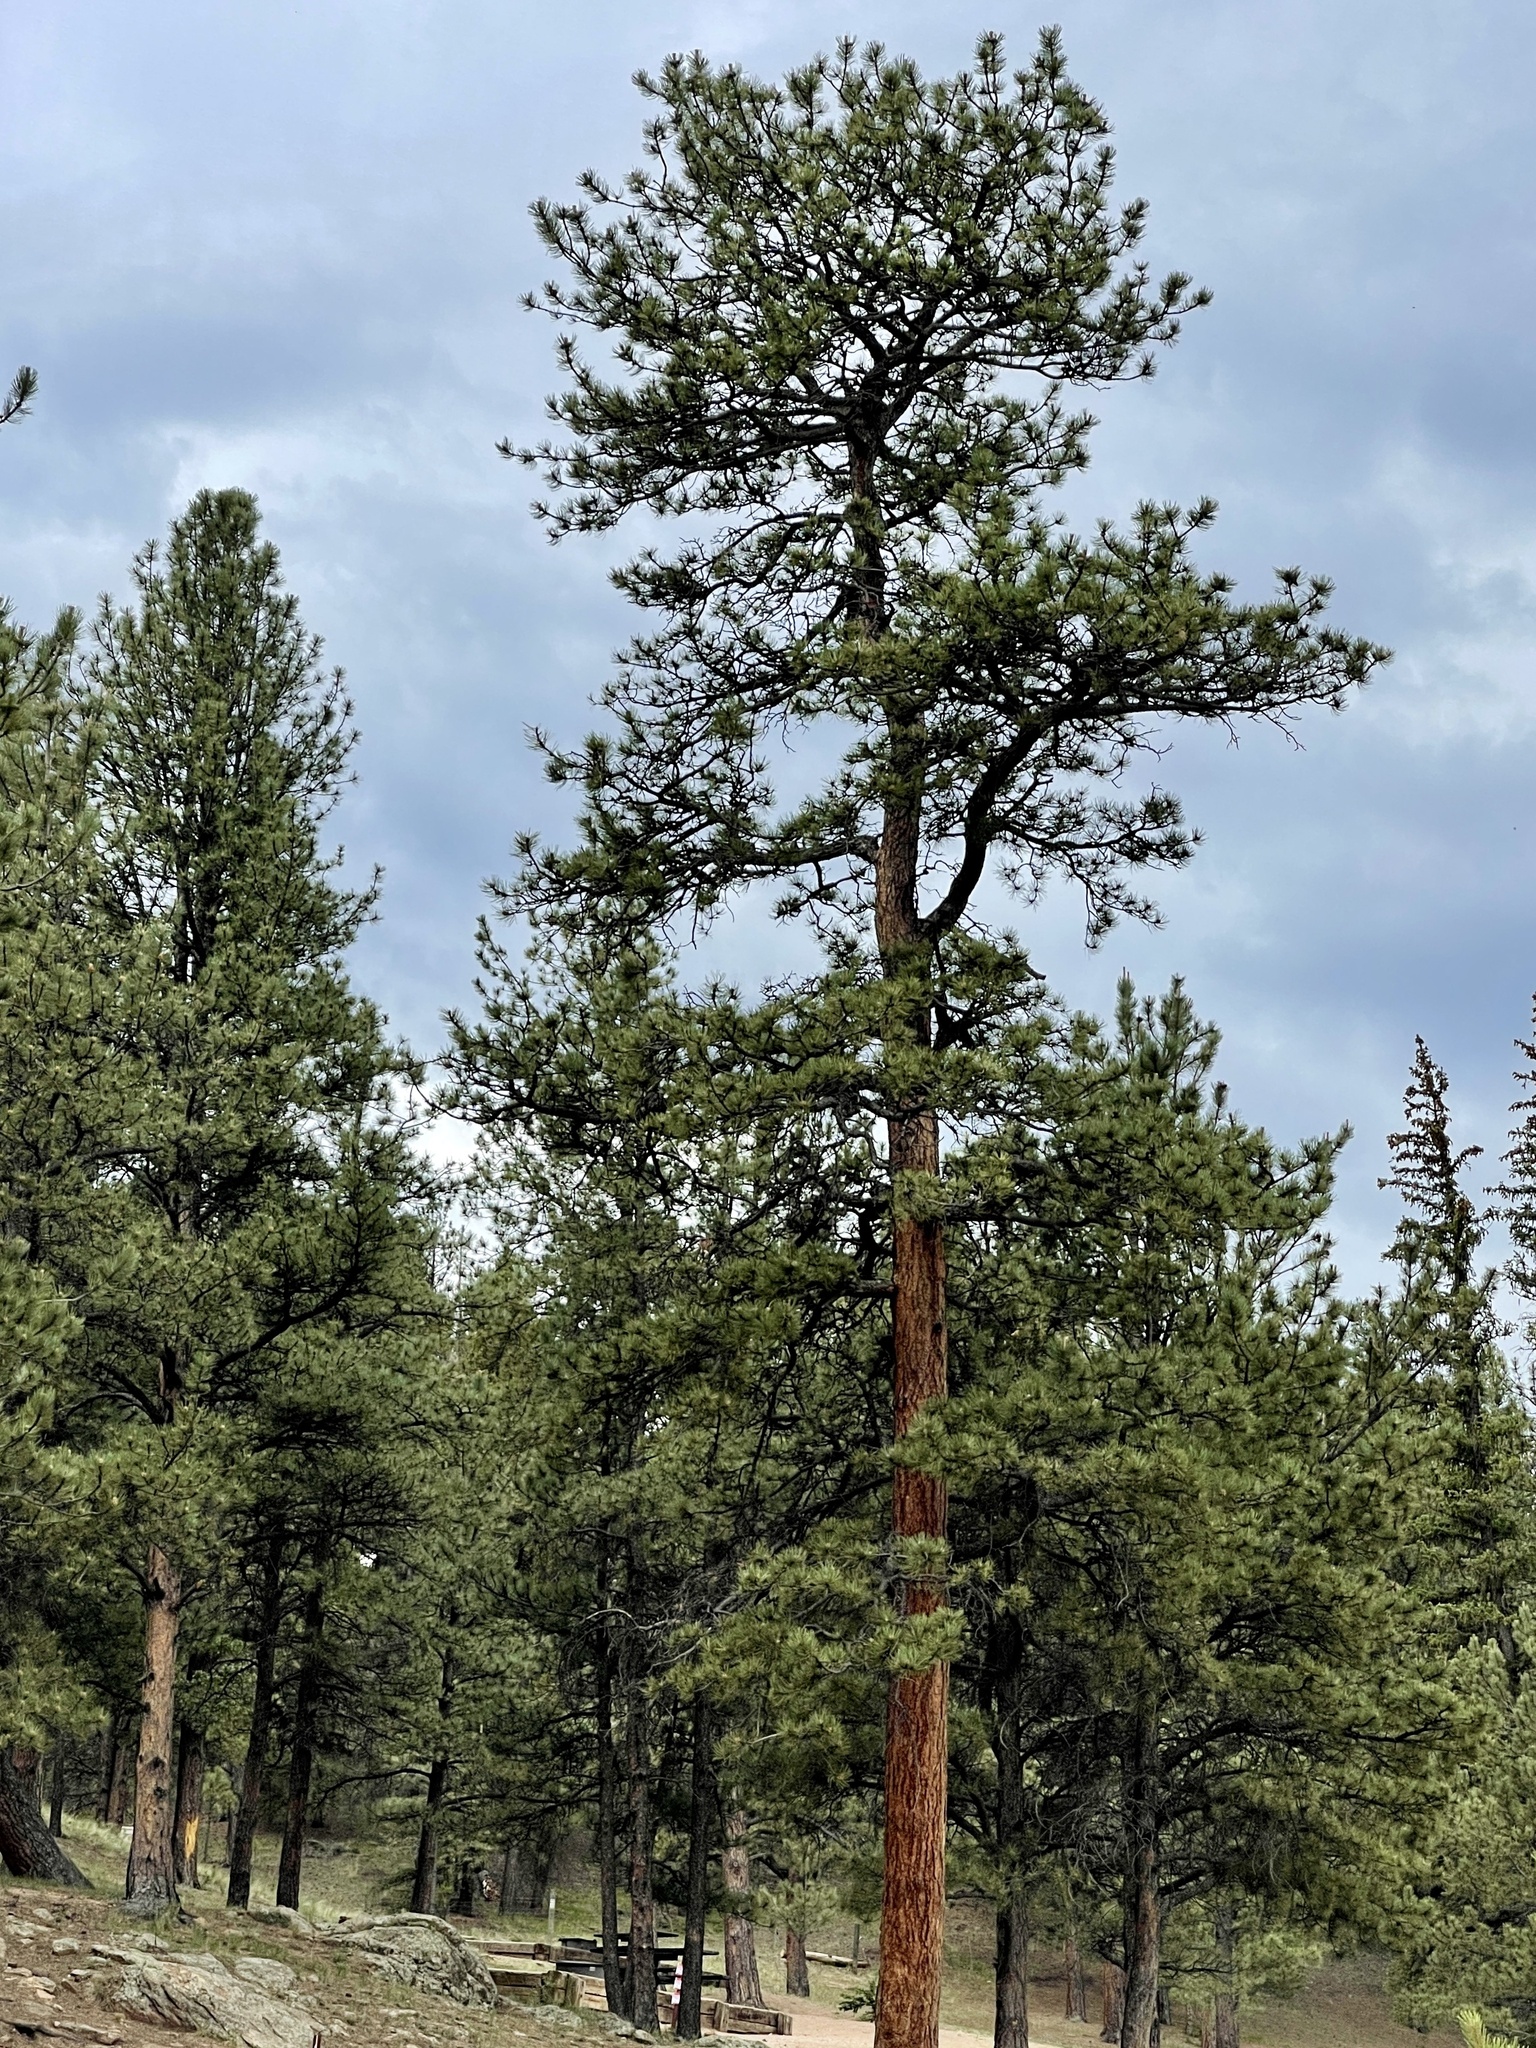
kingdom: Plantae
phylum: Tracheophyta
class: Pinopsida
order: Pinales
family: Pinaceae
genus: Pinus
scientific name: Pinus ponderosa
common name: Western yellow-pine
